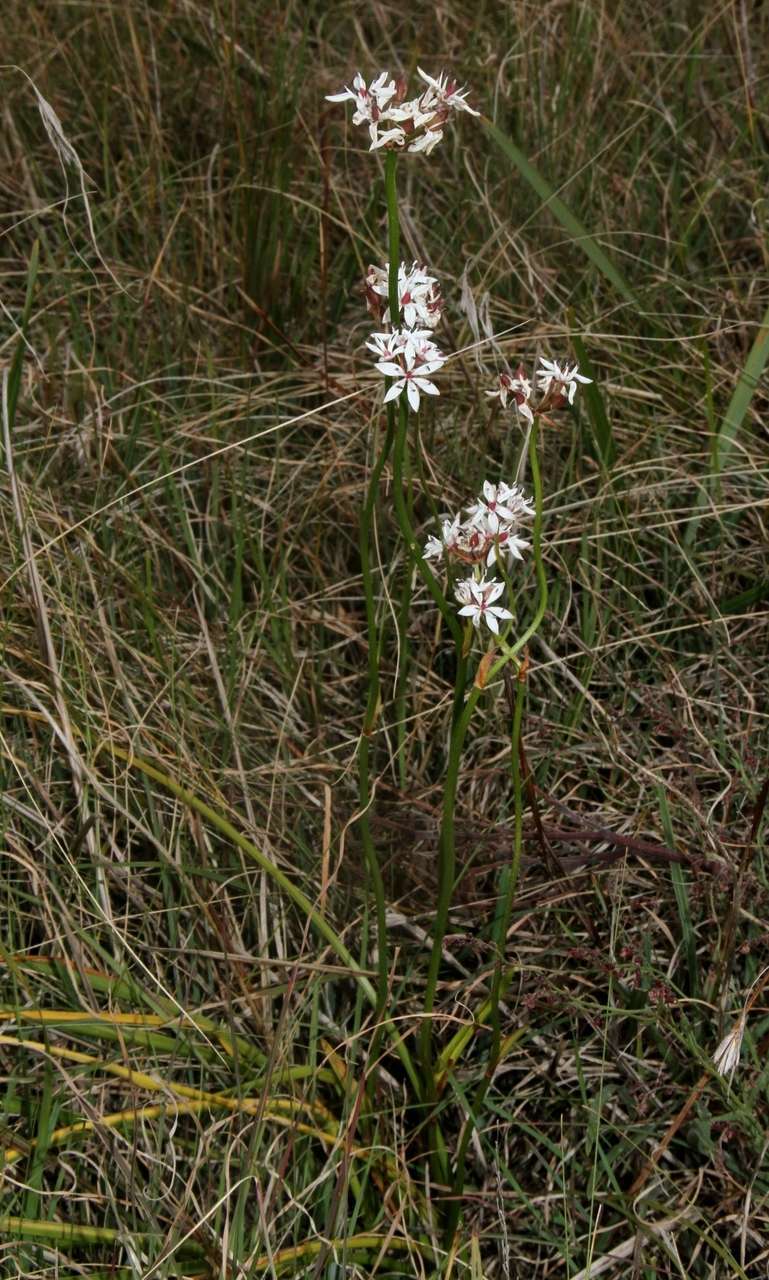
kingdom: Plantae
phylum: Tracheophyta
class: Liliopsida
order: Liliales
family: Colchicaceae
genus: Burchardia
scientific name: Burchardia umbellata
